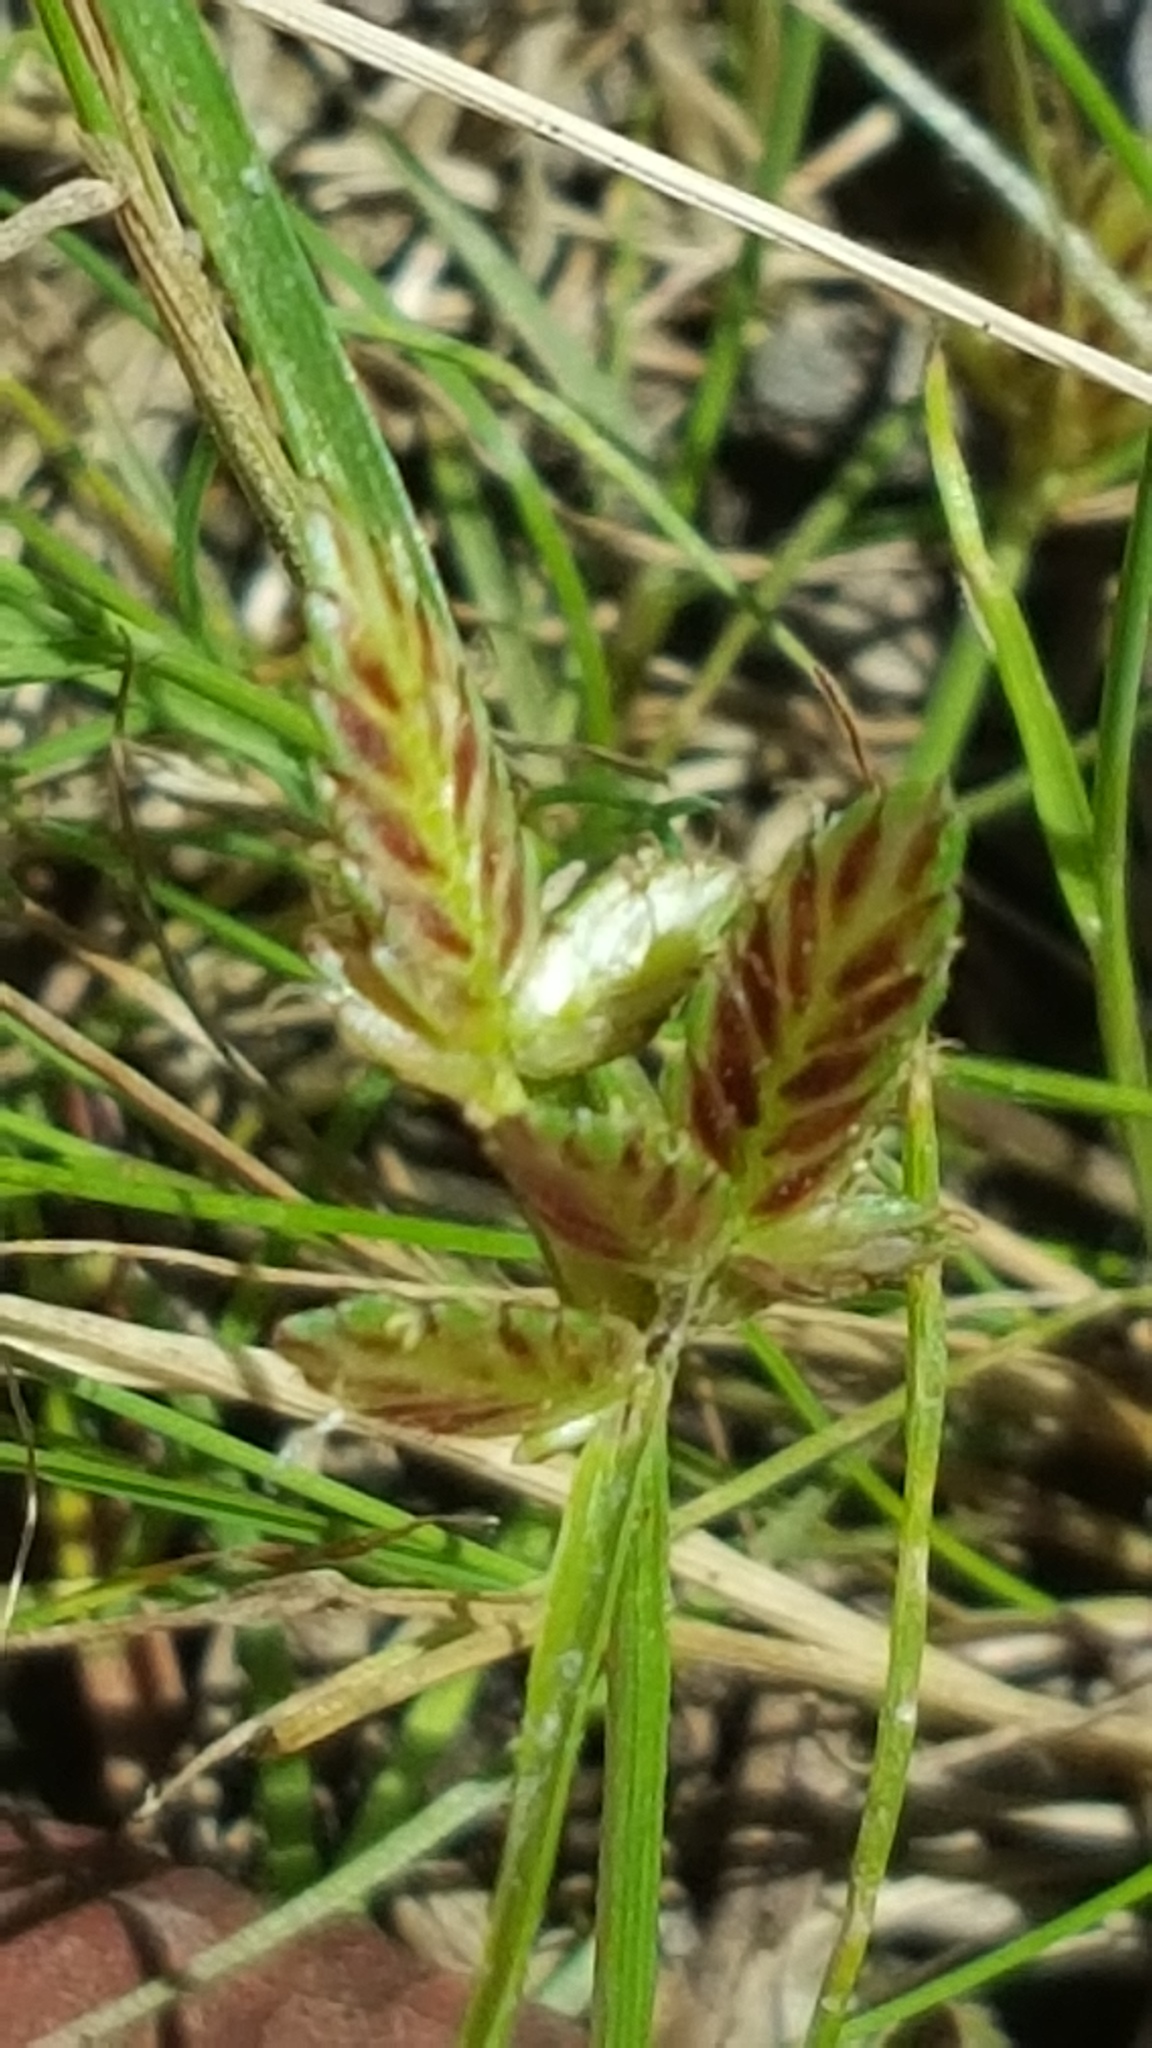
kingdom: Plantae
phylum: Tracheophyta
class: Liliopsida
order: Poales
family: Cyperaceae
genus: Cyperus
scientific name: Cyperus bipartitus
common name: Brook flatsedge
